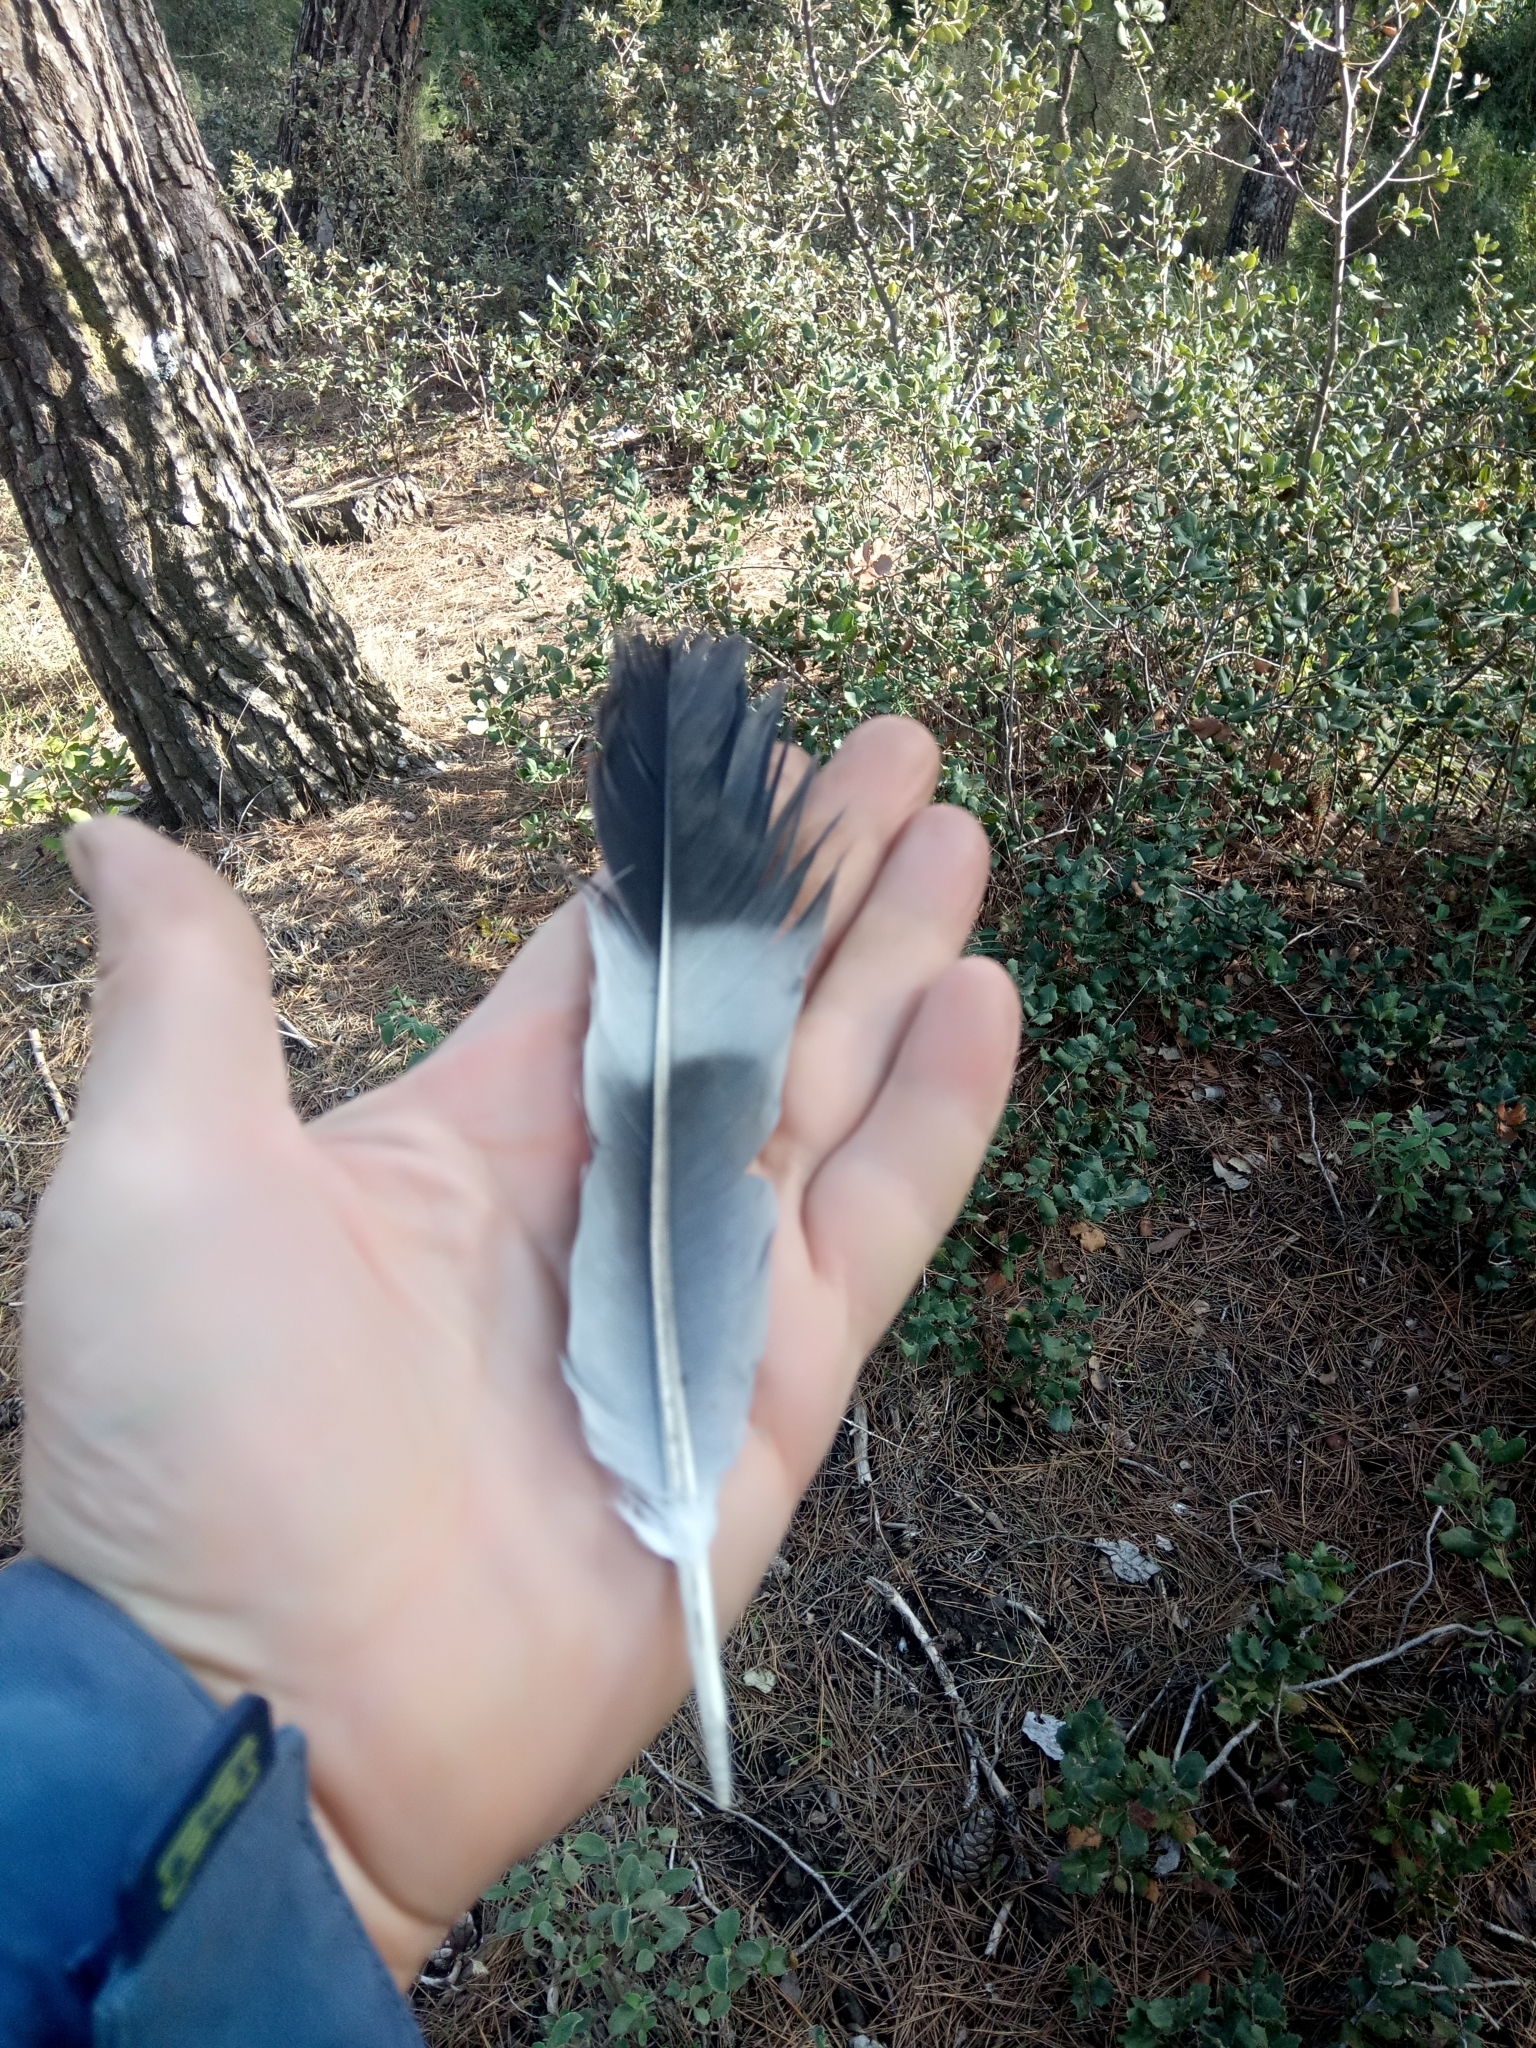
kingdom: Animalia
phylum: Chordata
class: Aves
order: Columbiformes
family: Columbidae
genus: Columba
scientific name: Columba palumbus
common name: Common wood pigeon
